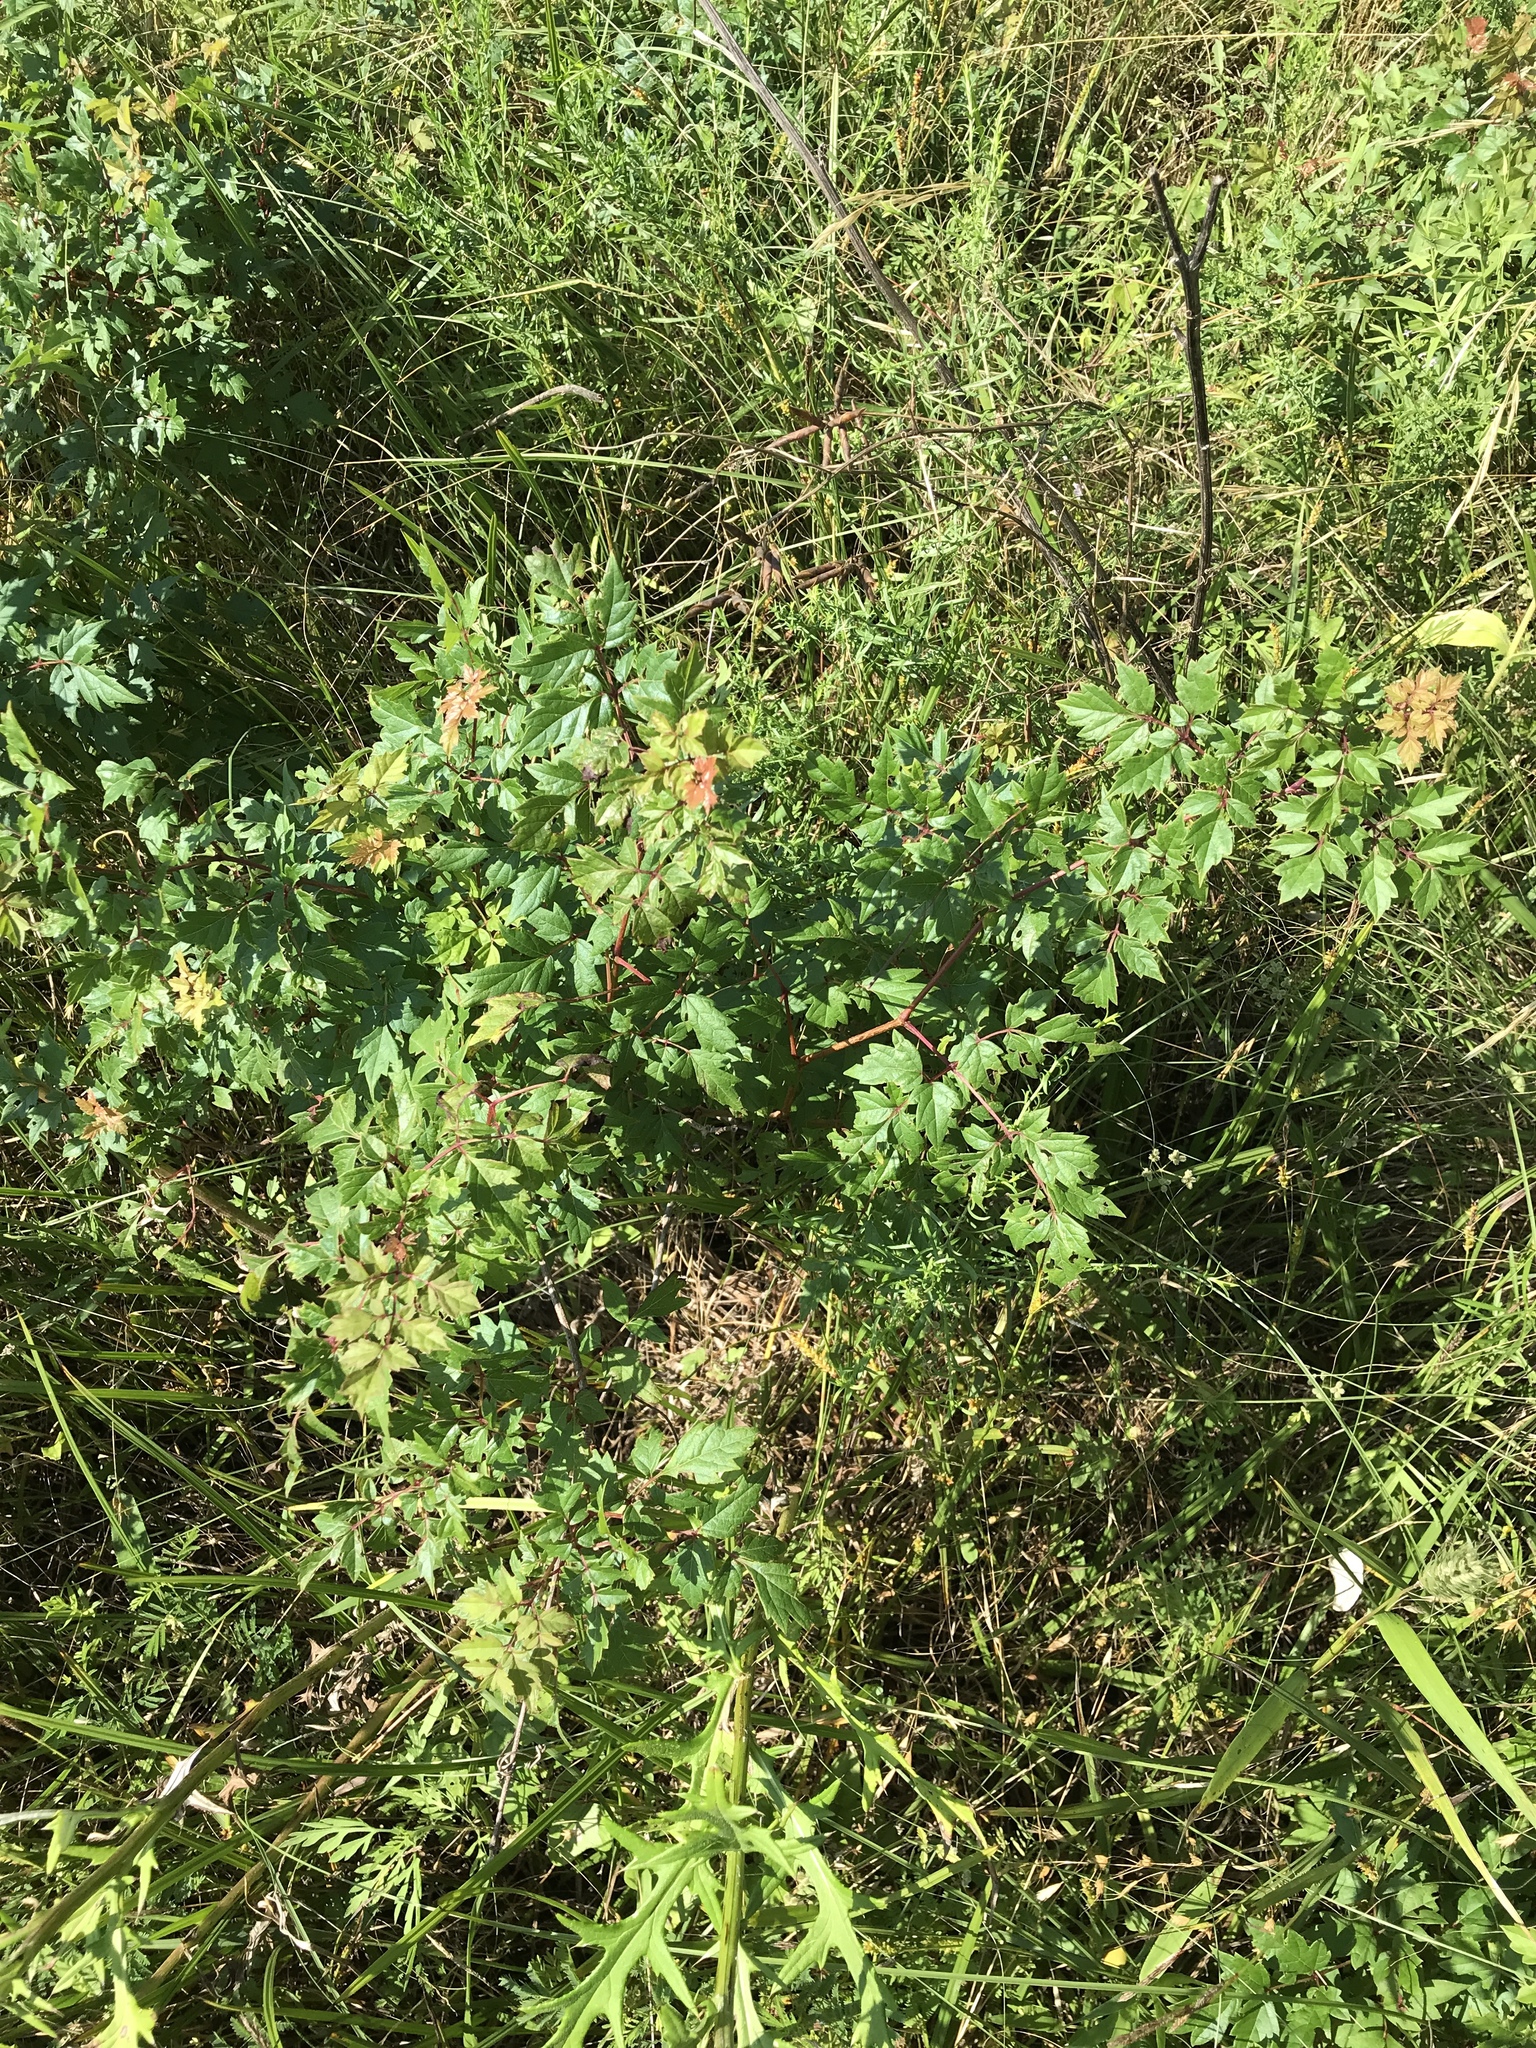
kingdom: Plantae
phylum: Tracheophyta
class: Magnoliopsida
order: Vitales
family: Vitaceae
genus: Nekemias
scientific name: Nekemias arborea
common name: Peppervine
